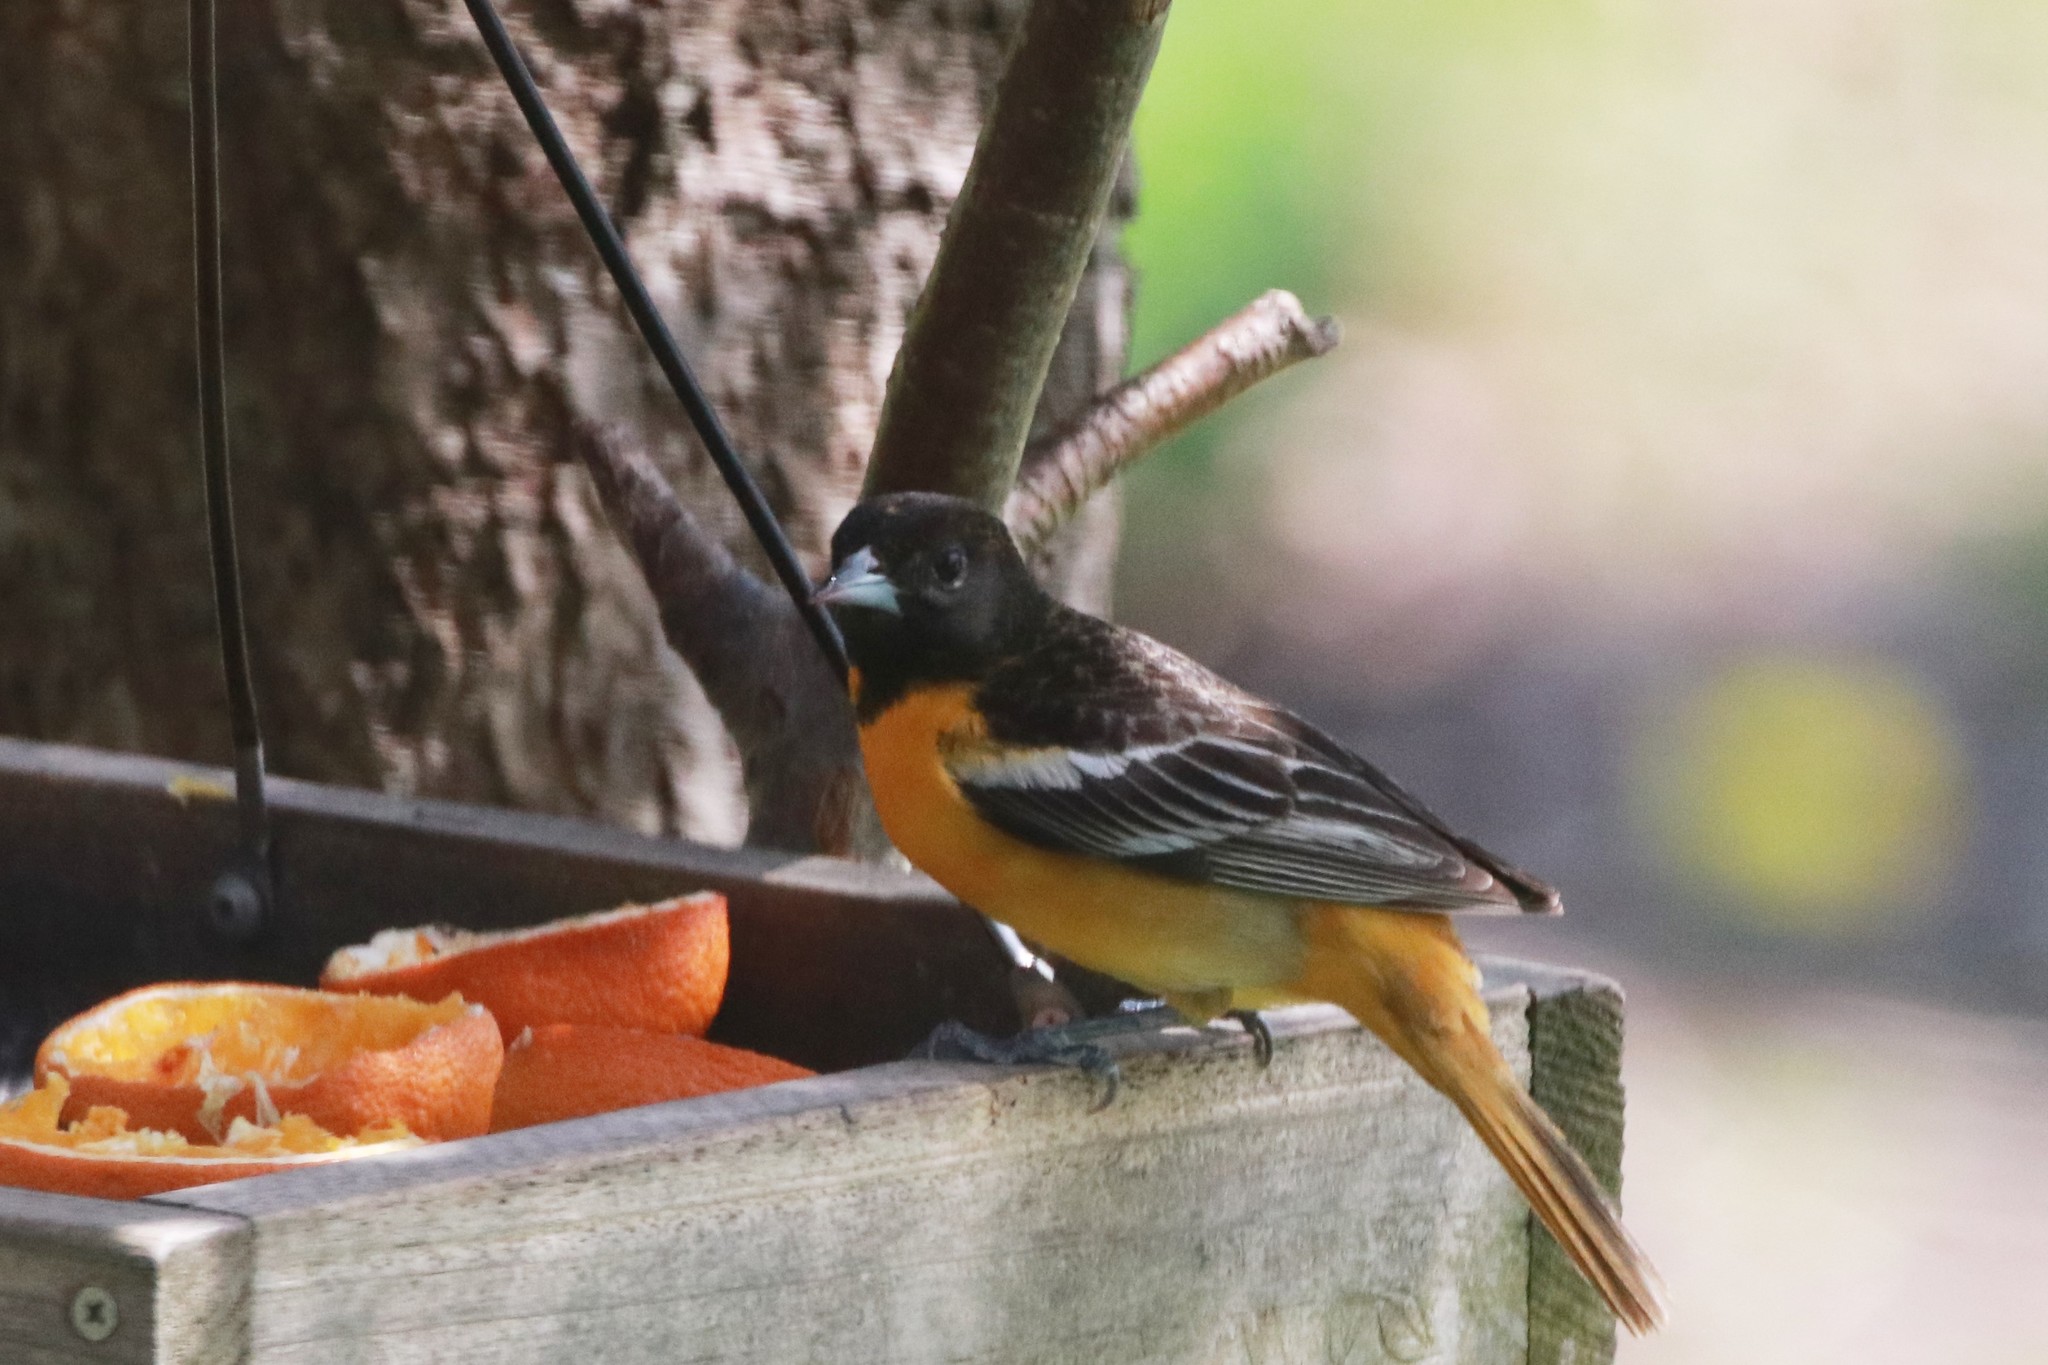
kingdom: Animalia
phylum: Chordata
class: Aves
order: Passeriformes
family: Icteridae
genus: Icterus
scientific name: Icterus galbula
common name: Baltimore oriole
